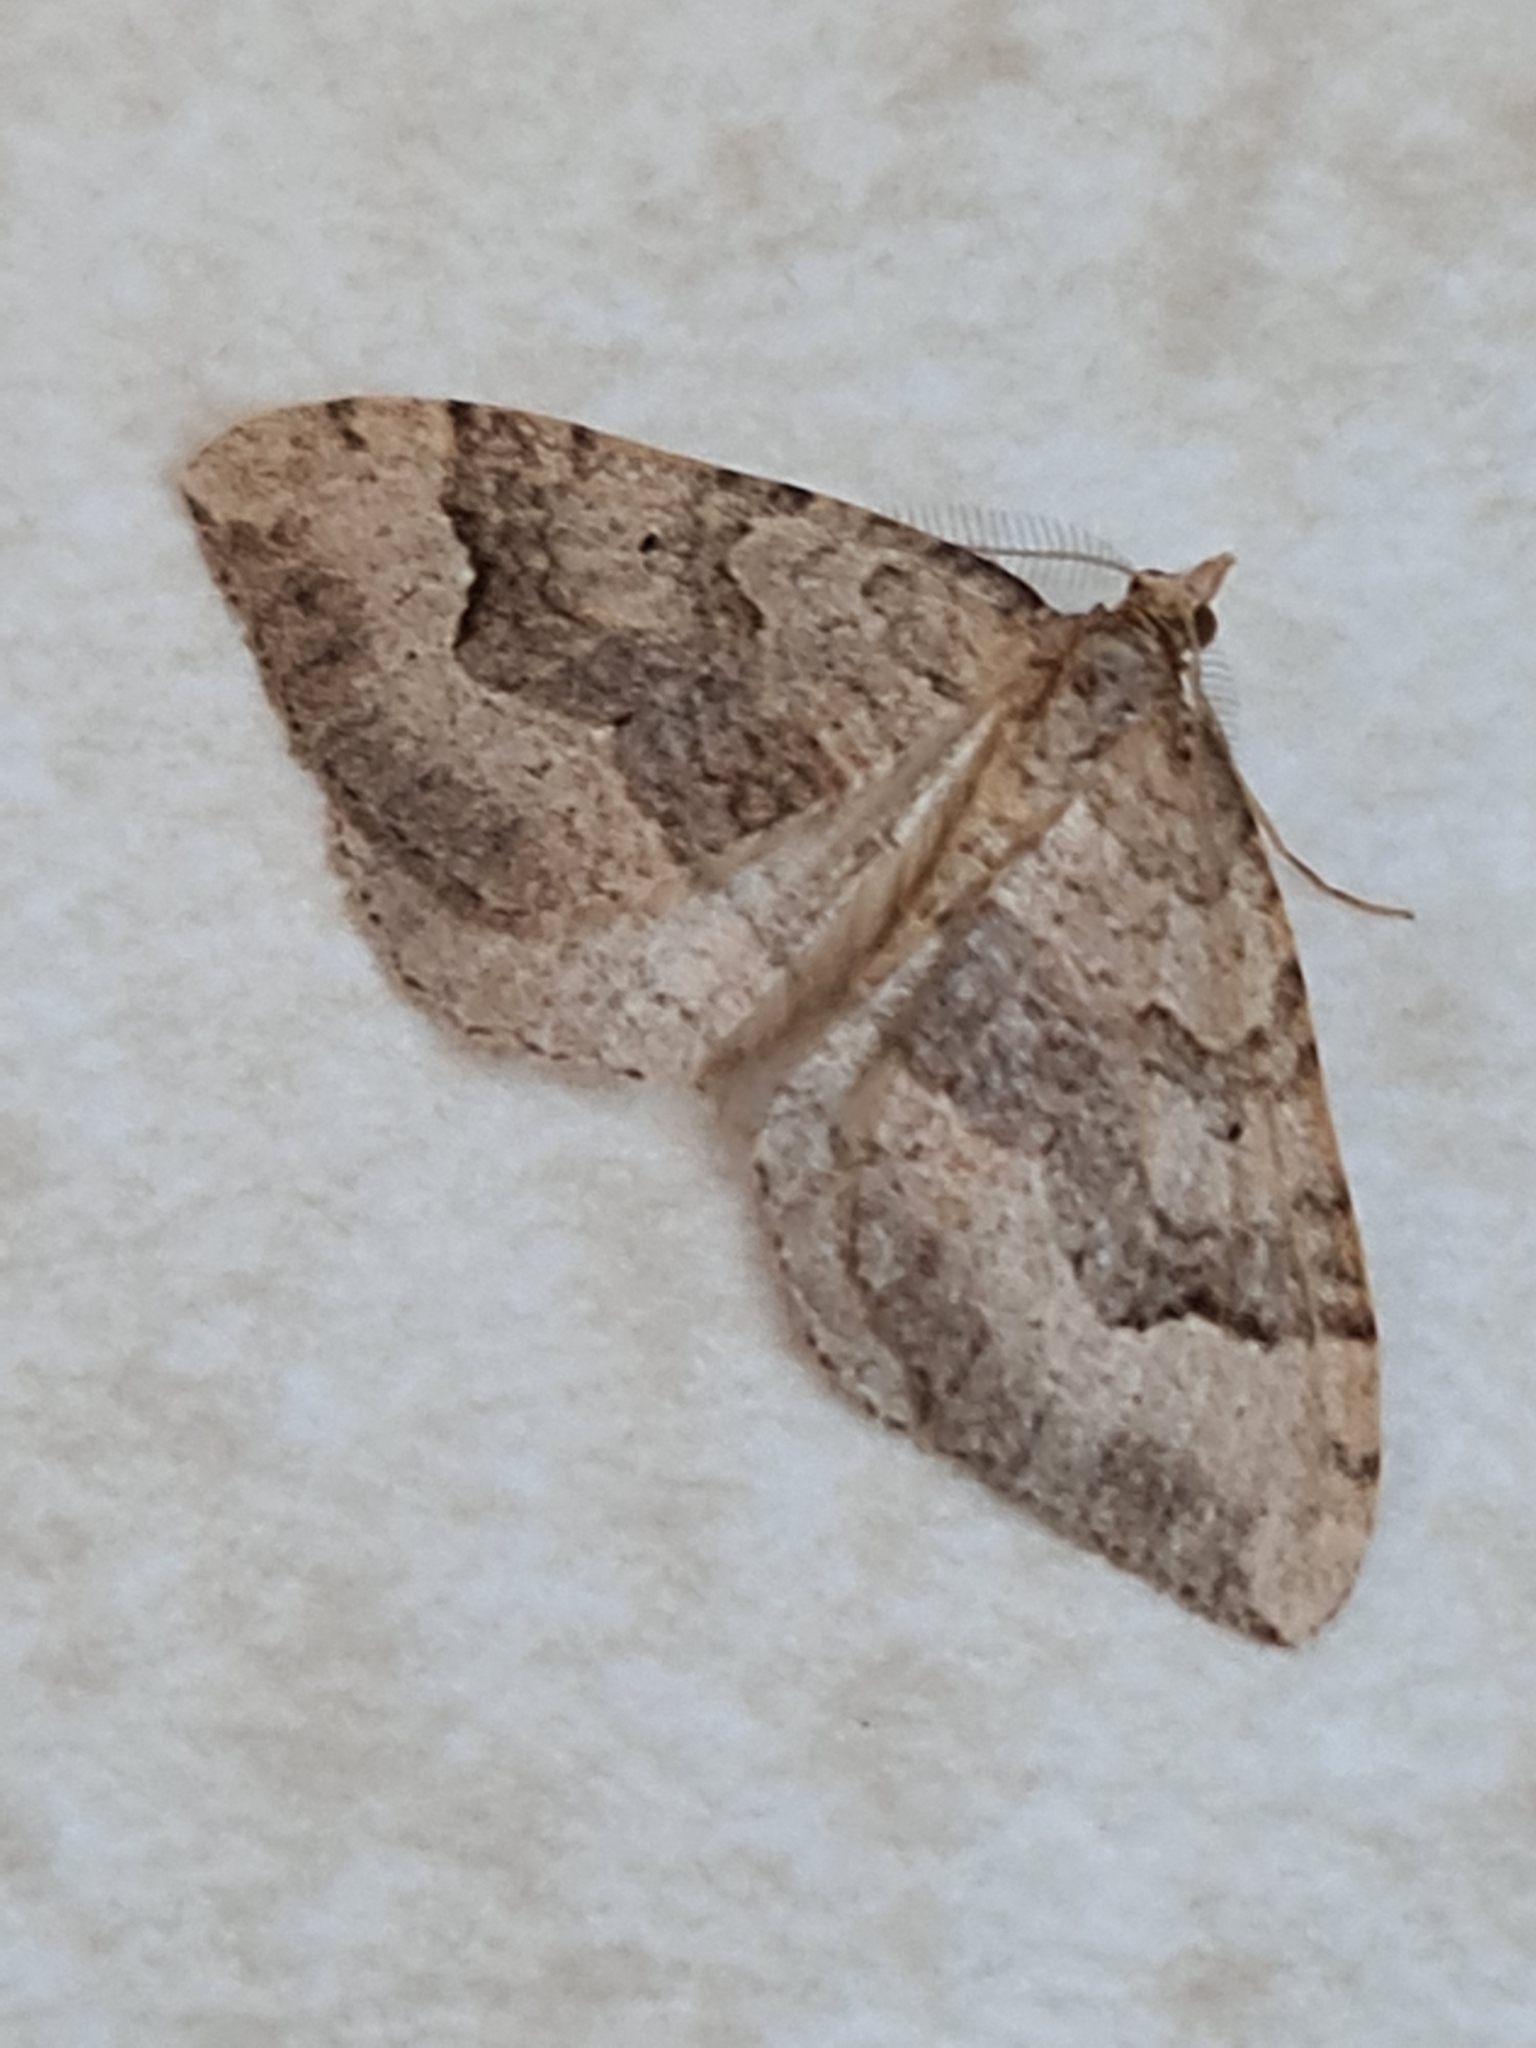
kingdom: Animalia
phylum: Arthropoda
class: Insecta
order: Lepidoptera
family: Geometridae
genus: Epyaxa
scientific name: Epyaxa rosearia
